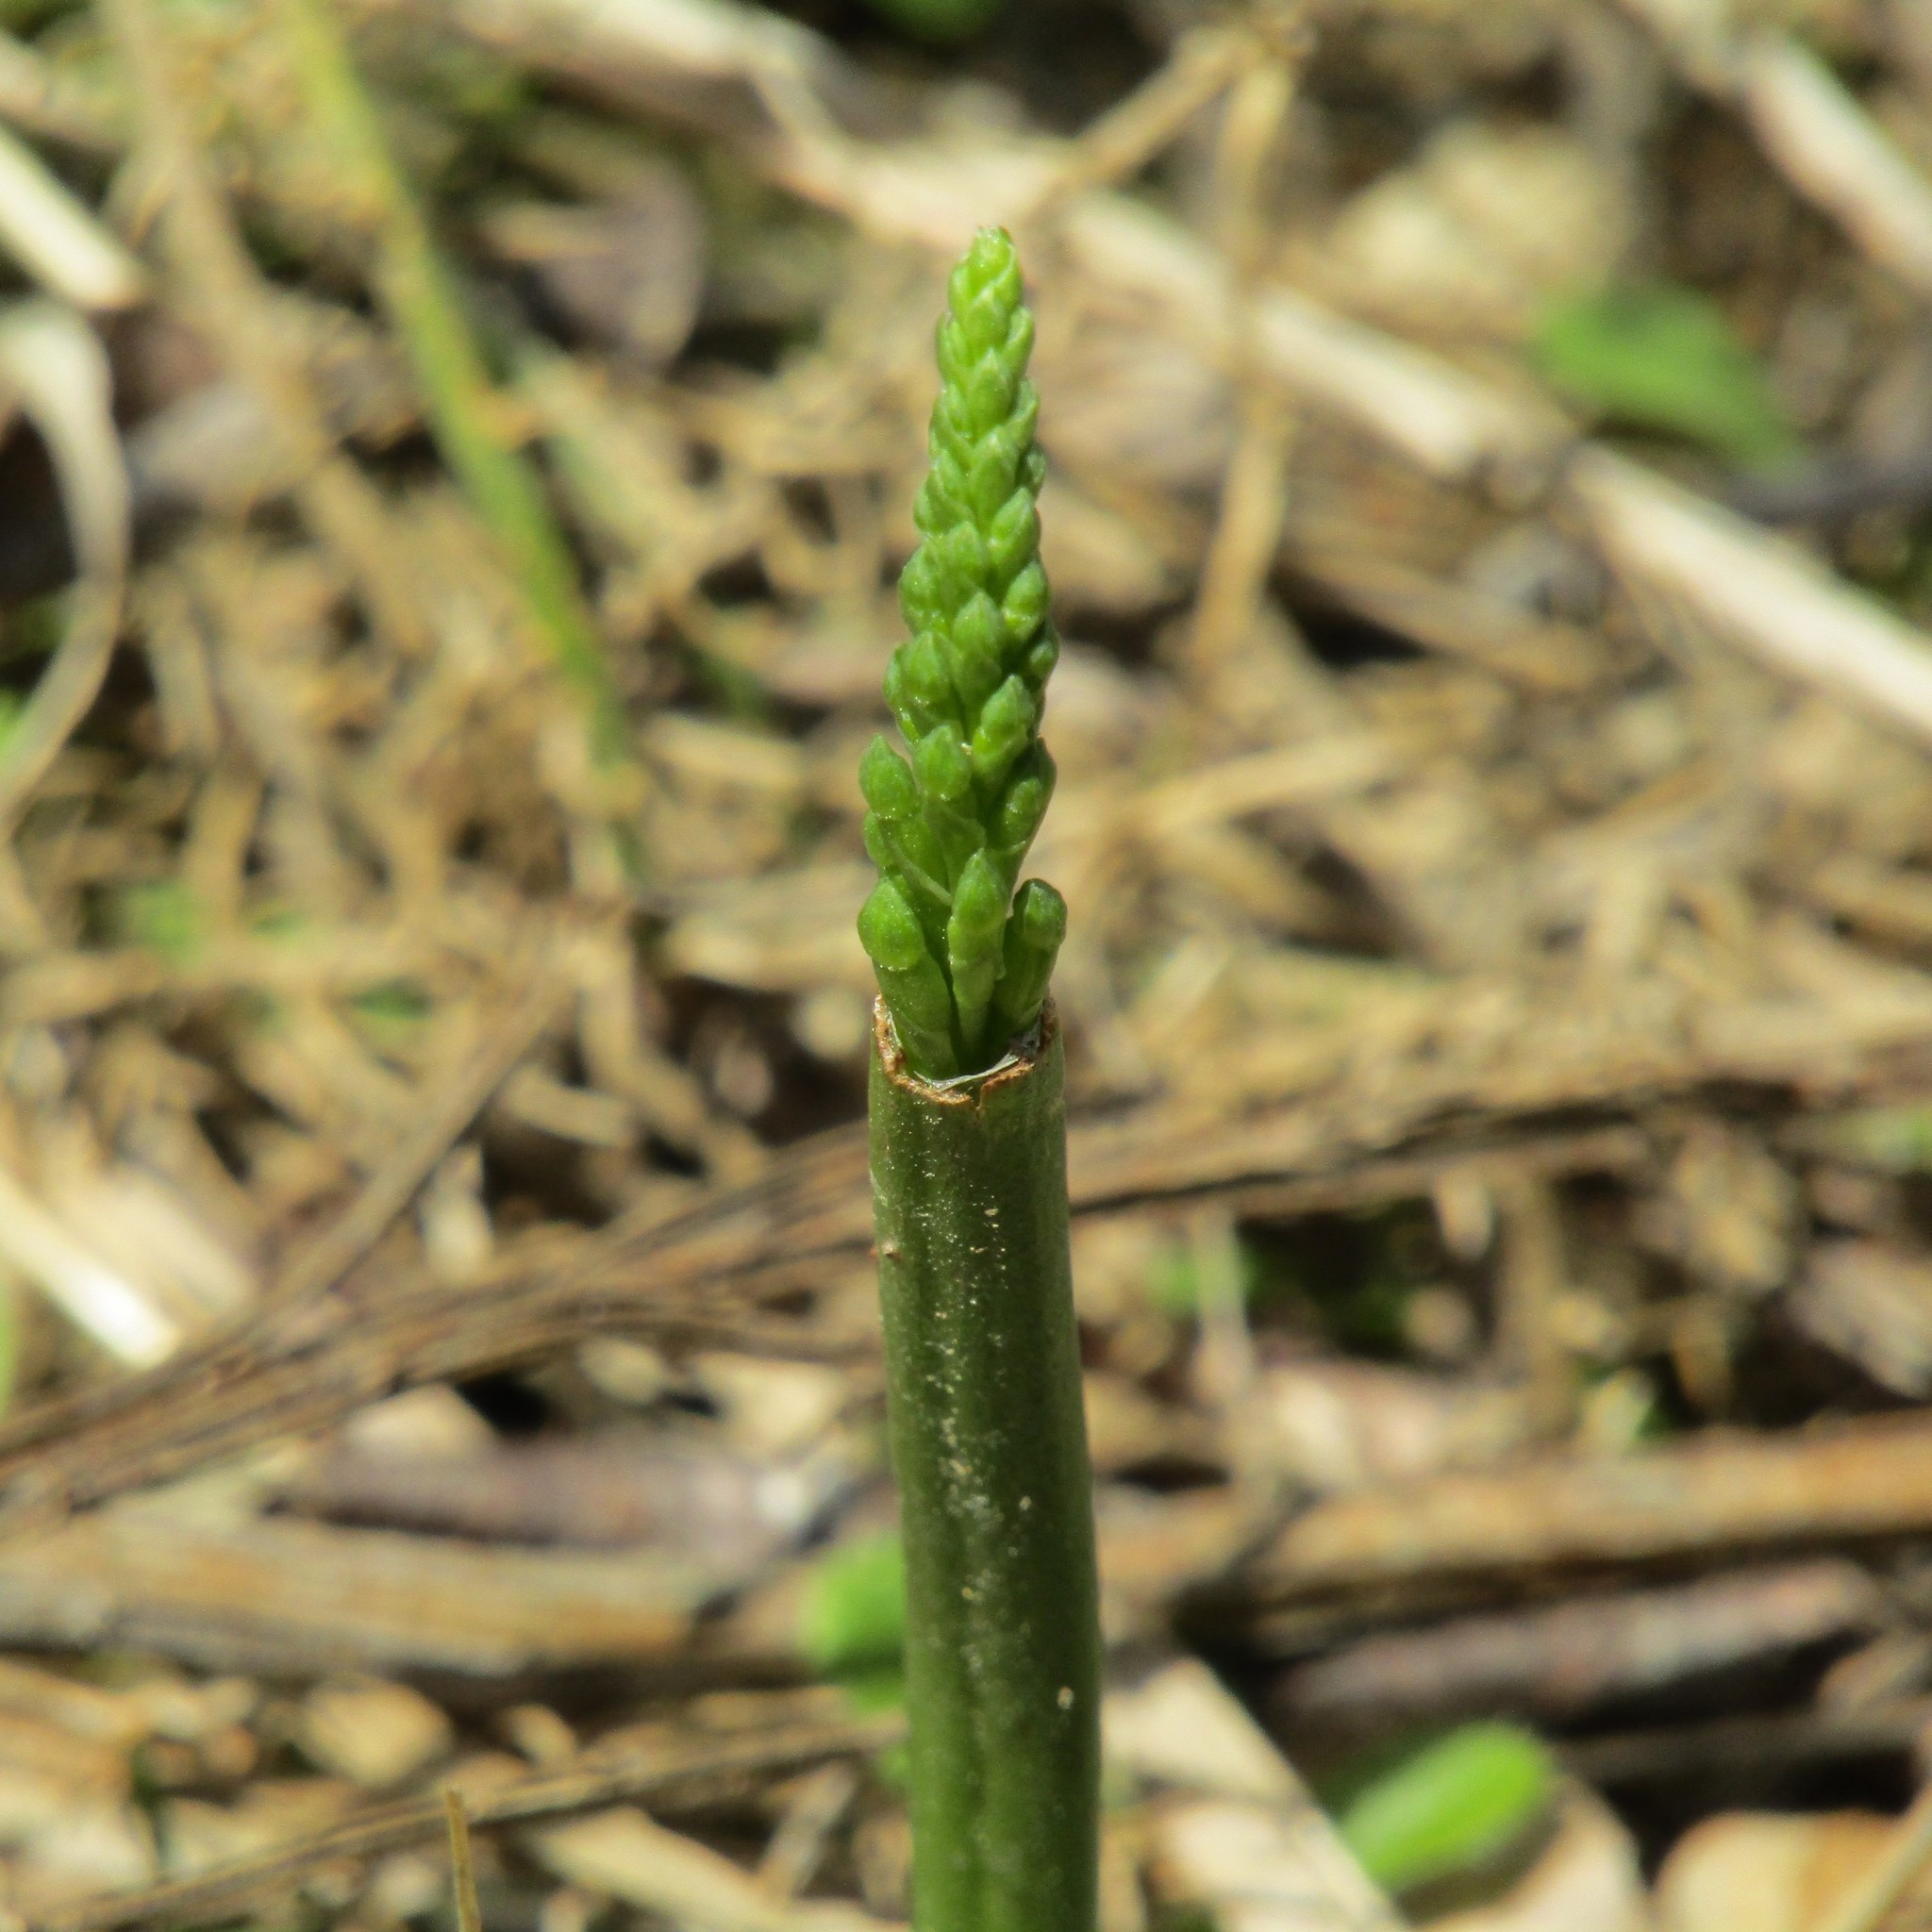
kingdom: Plantae
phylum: Tracheophyta
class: Liliopsida
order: Asparagales
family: Orchidaceae
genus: Microtis
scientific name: Microtis unifolia
